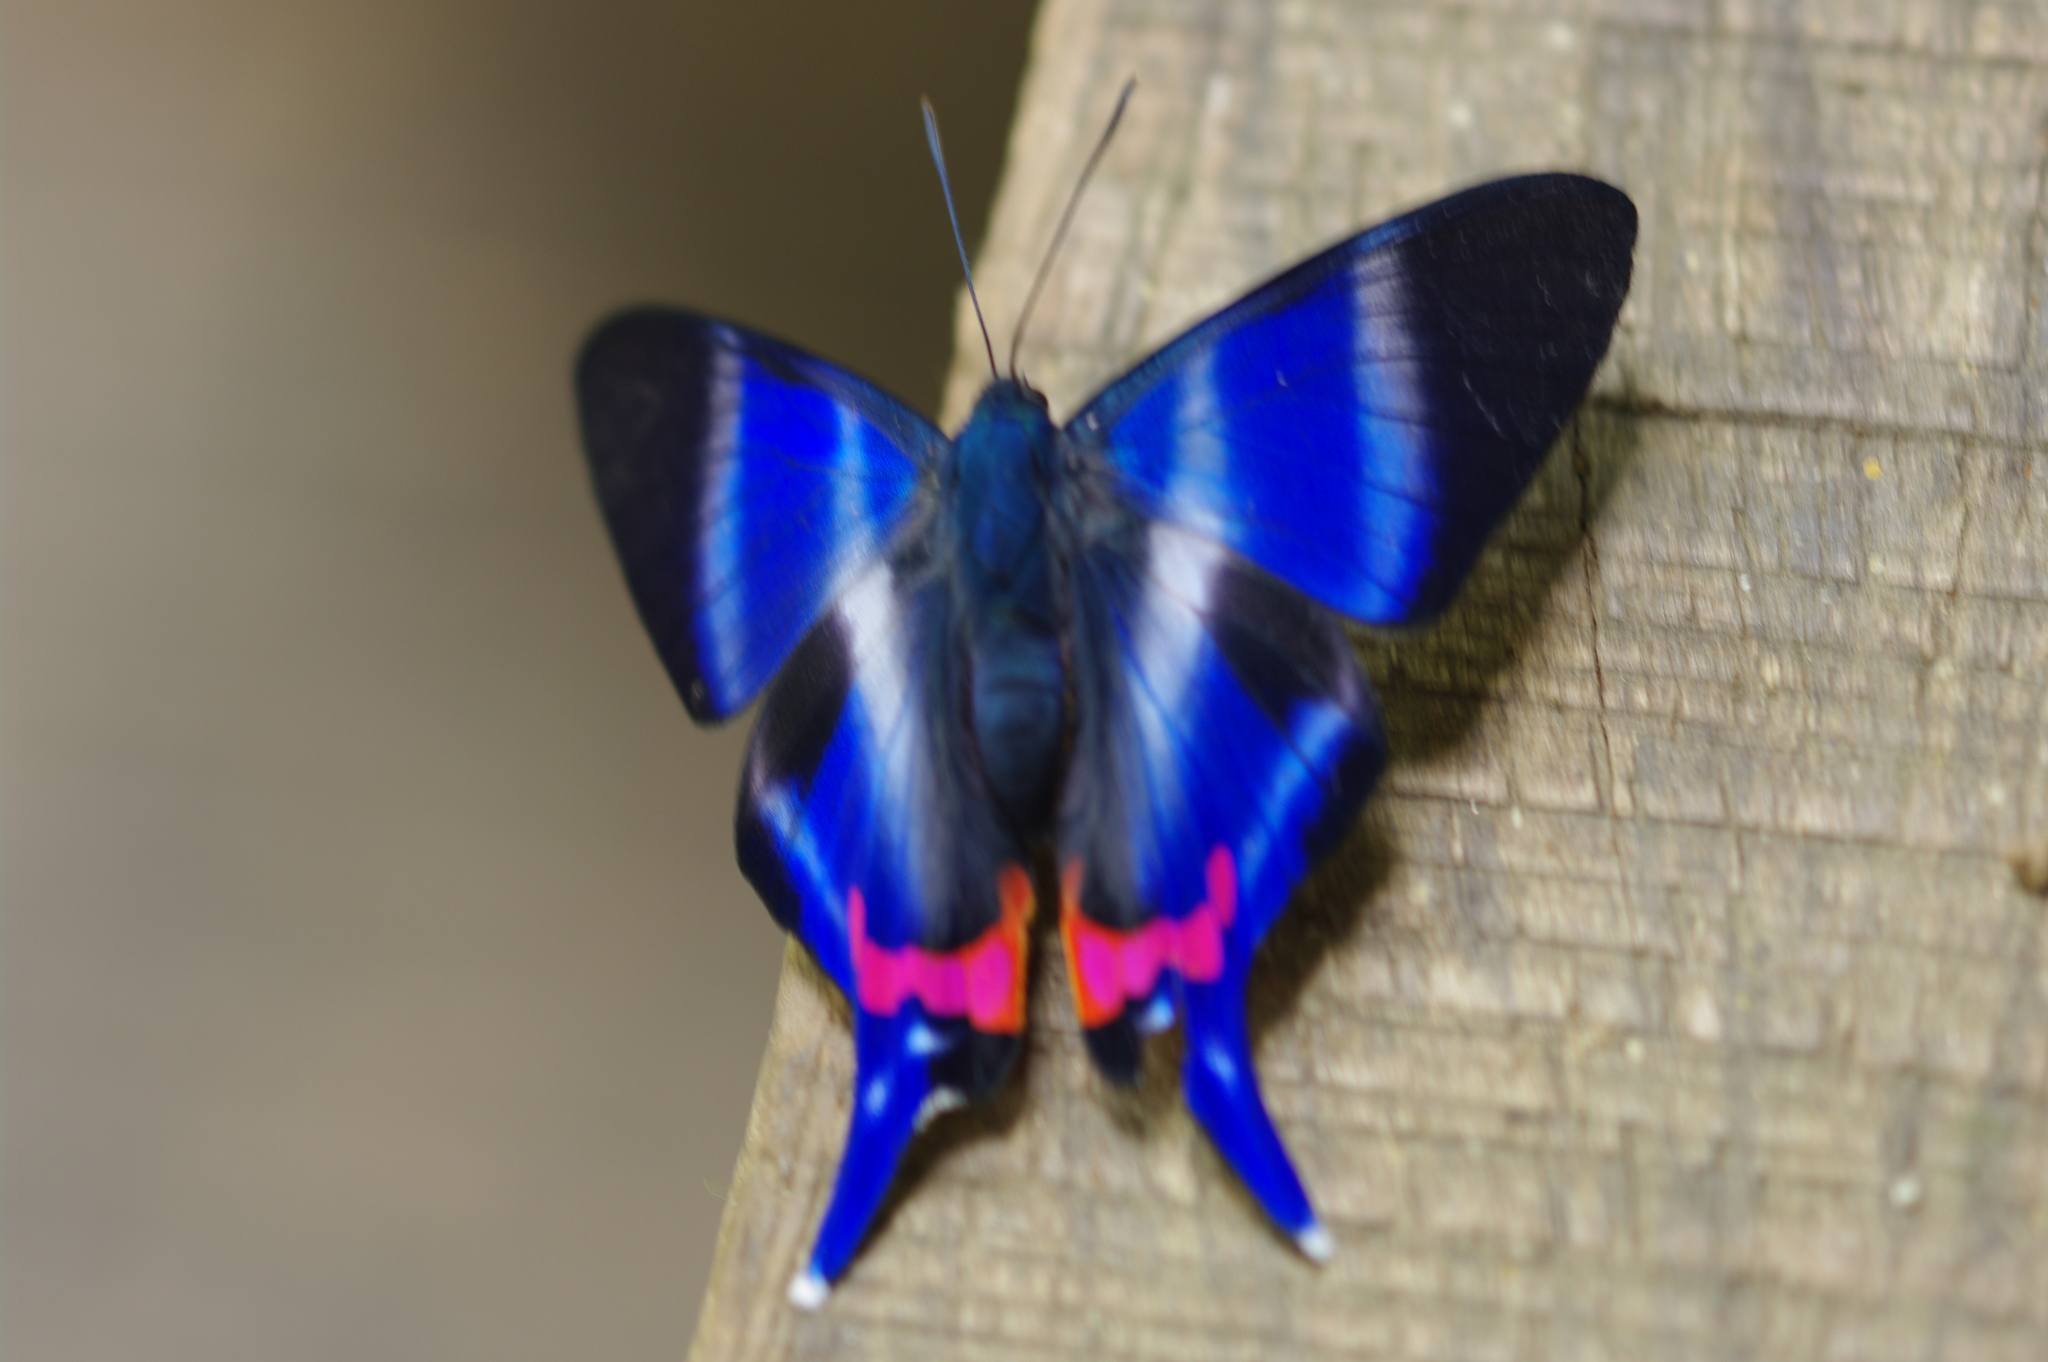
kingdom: Animalia
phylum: Arthropoda
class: Insecta
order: Lepidoptera
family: Riodinidae
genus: Rhetus
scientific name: Rhetus dysonii
